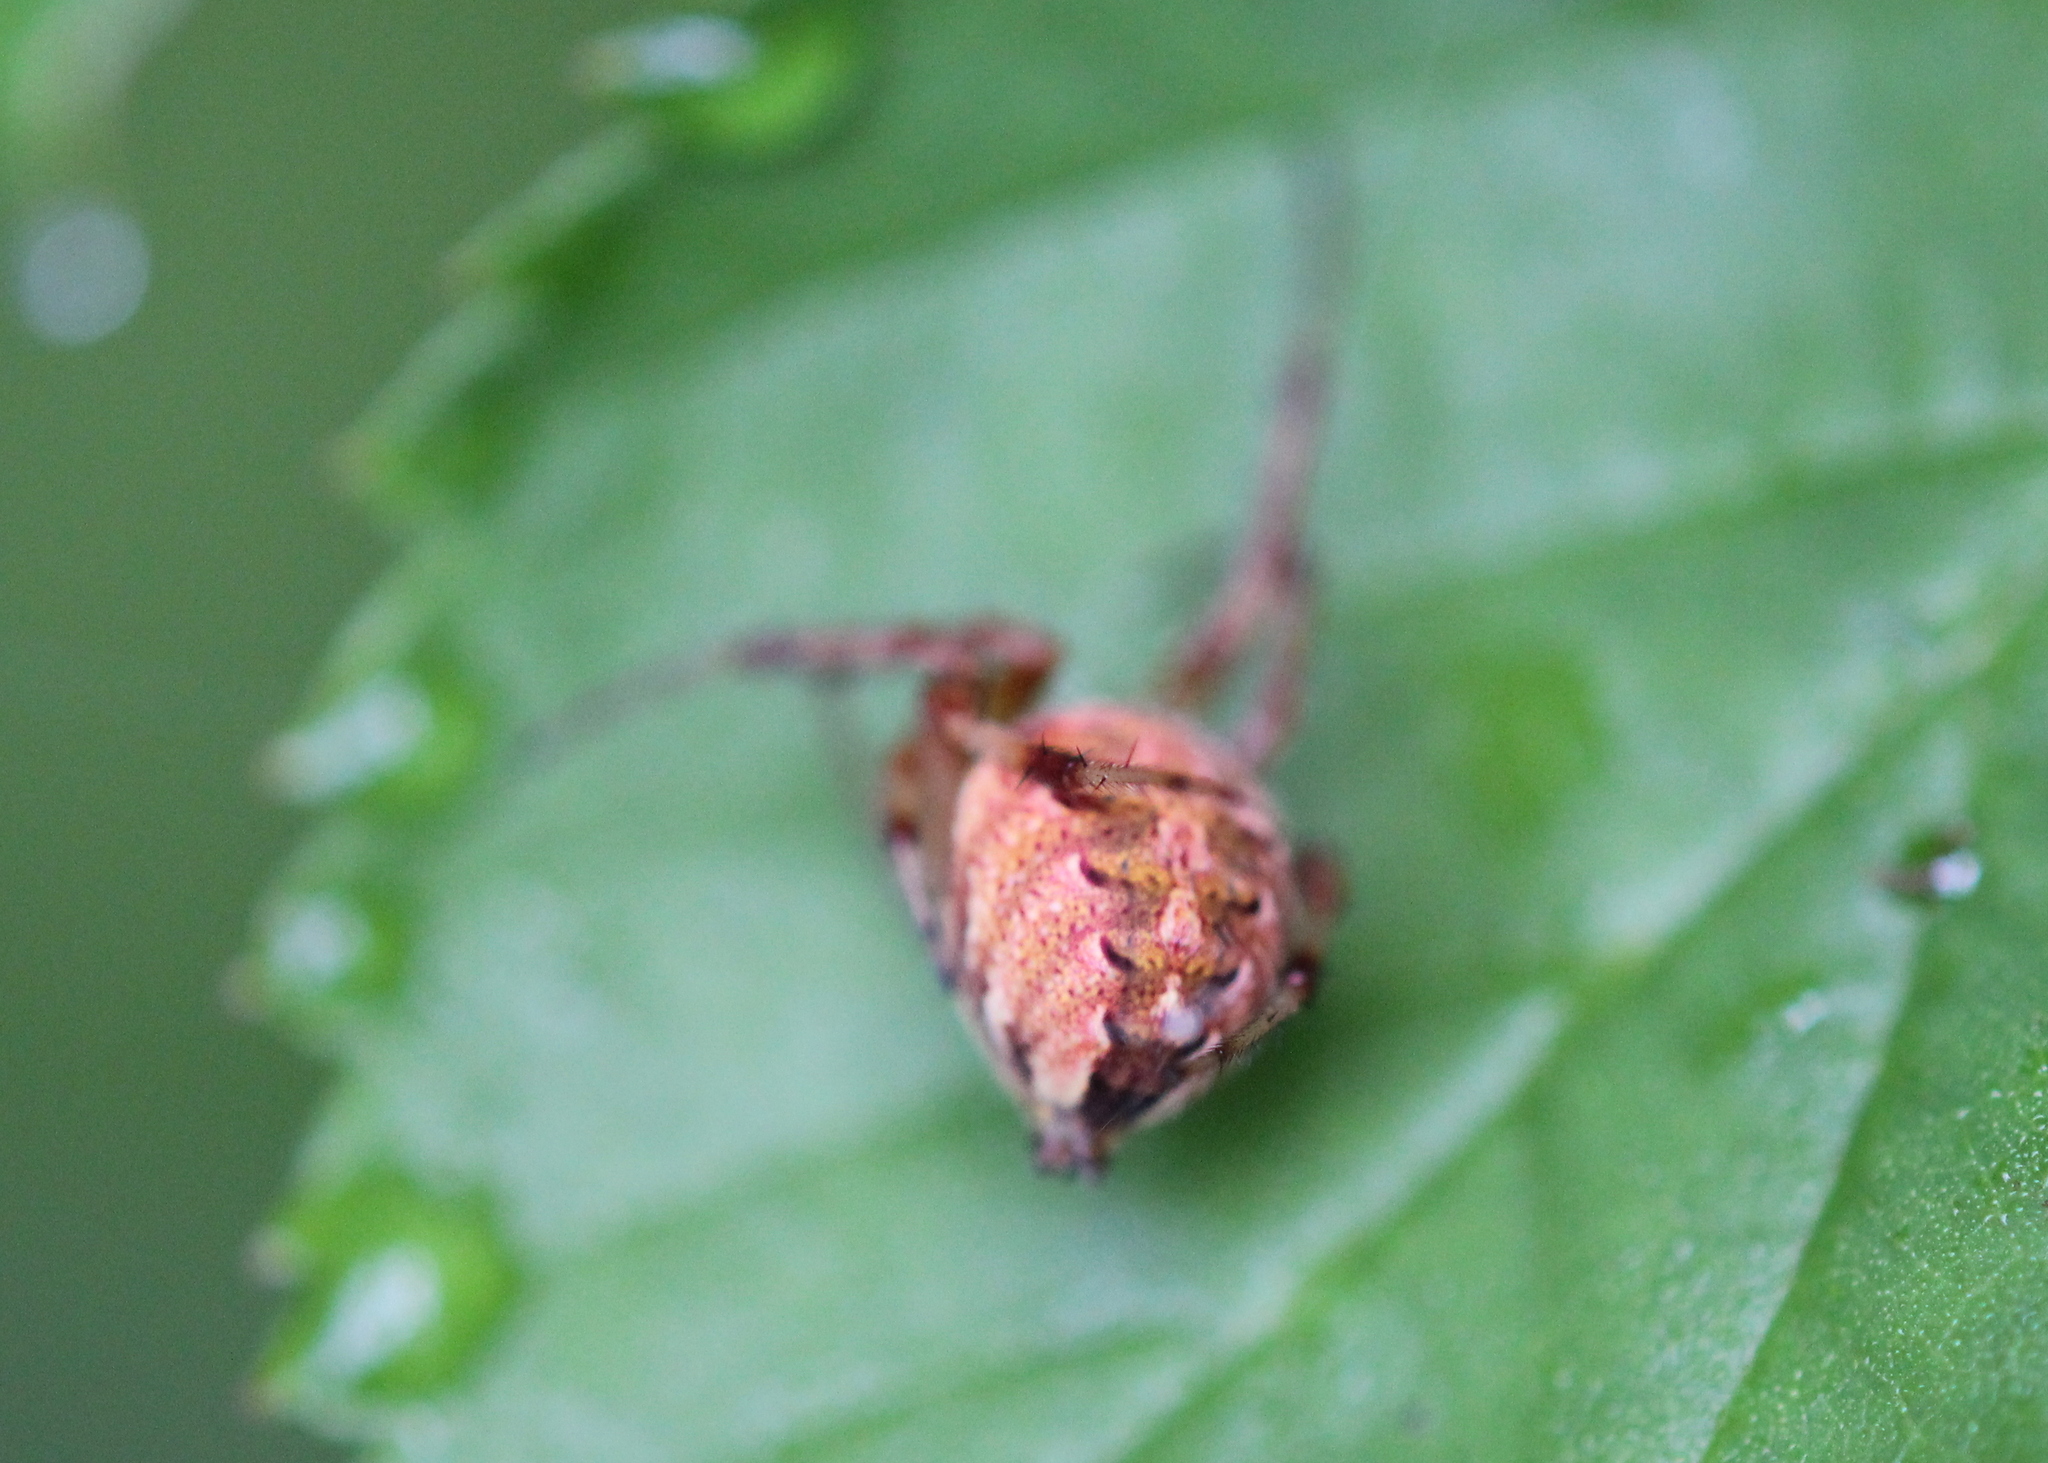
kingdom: Animalia
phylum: Arthropoda
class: Arachnida
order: Araneae
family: Araneidae
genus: Neoscona
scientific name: Neoscona arabesca
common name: Orb weavers
